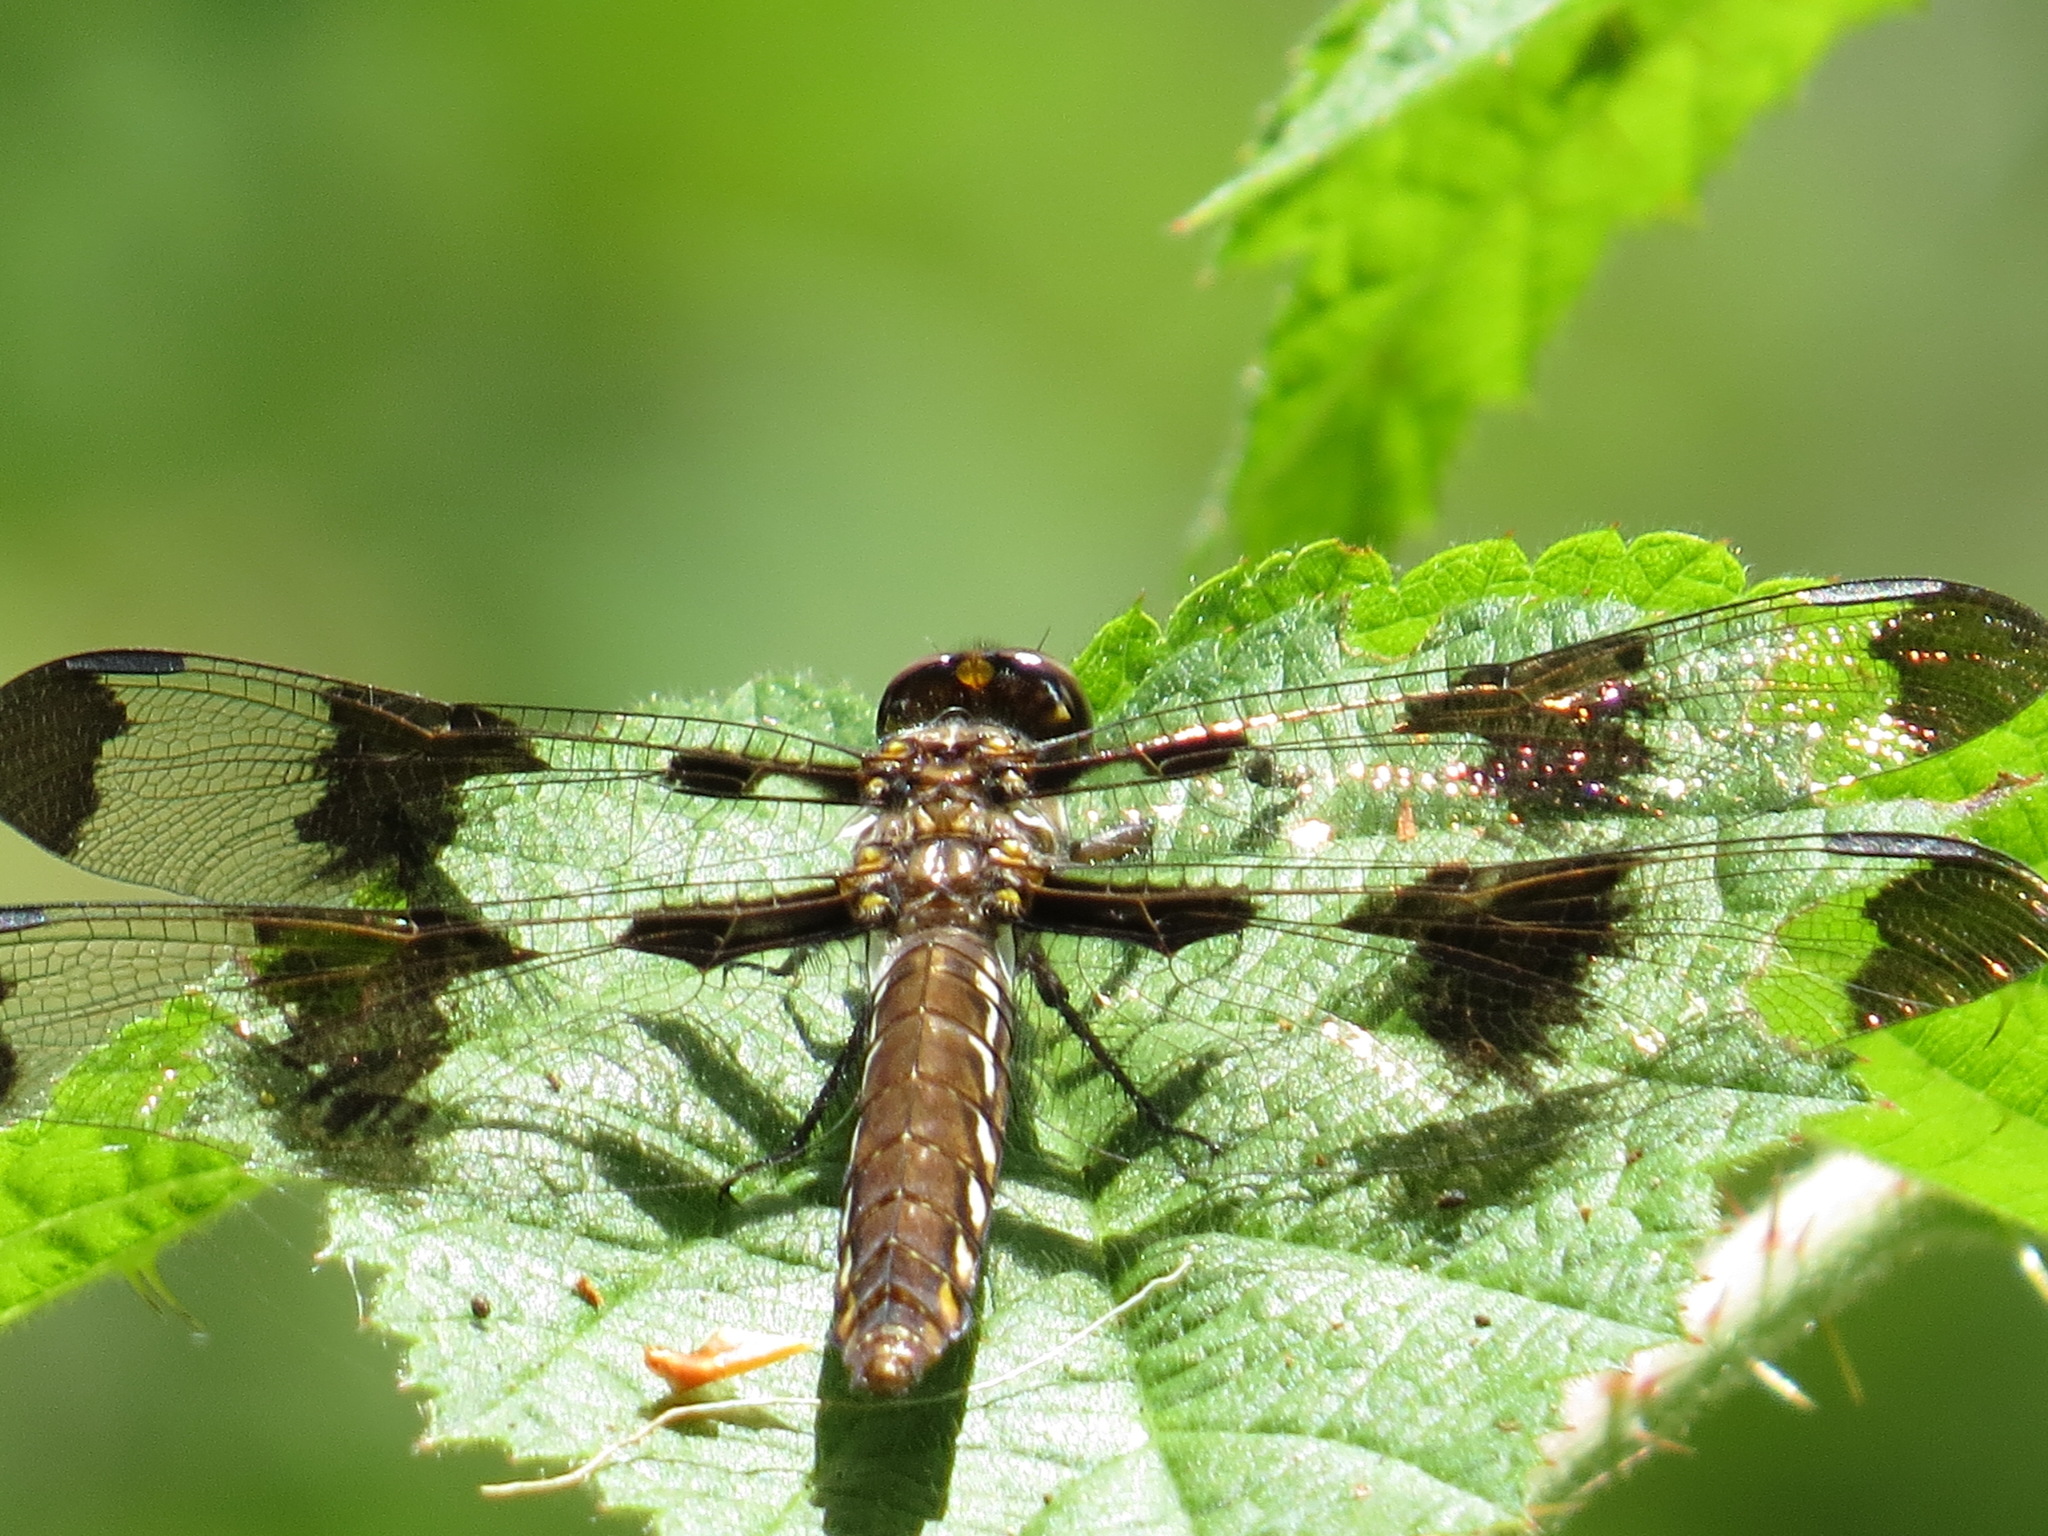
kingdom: Animalia
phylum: Arthropoda
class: Insecta
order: Odonata
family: Libellulidae
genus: Plathemis
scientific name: Plathemis lydia
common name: Common whitetail
